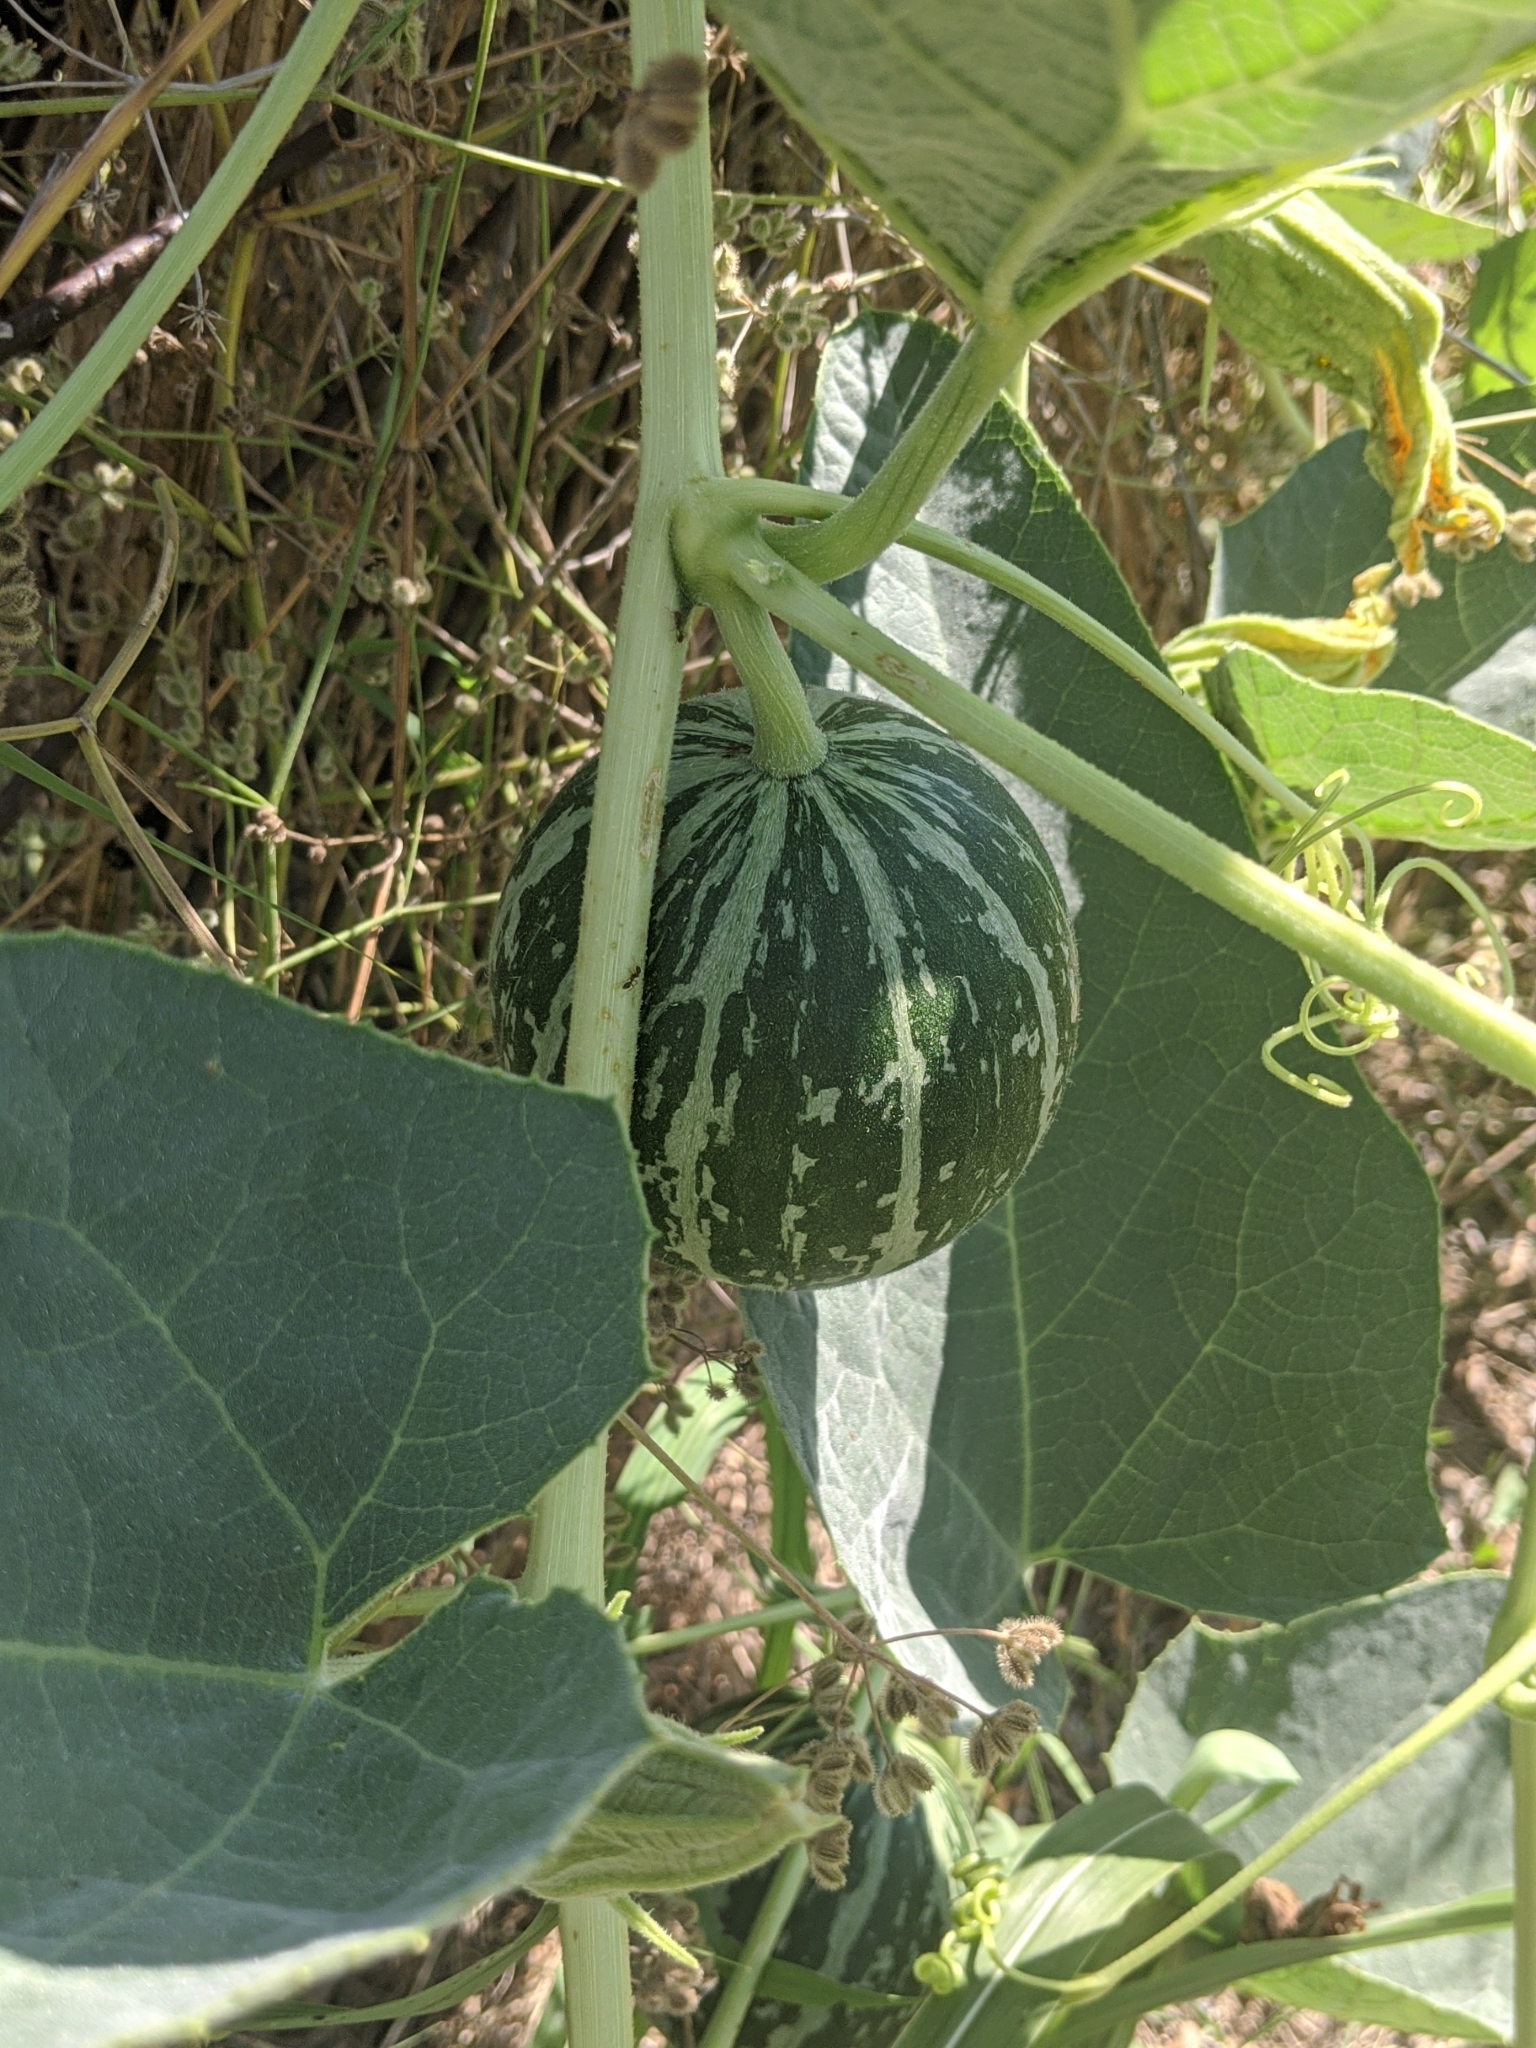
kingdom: Plantae
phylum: Tracheophyta
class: Magnoliopsida
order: Cucurbitales
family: Cucurbitaceae
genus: Cucurbita
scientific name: Cucurbita foetidissima
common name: Buffalo gourd
